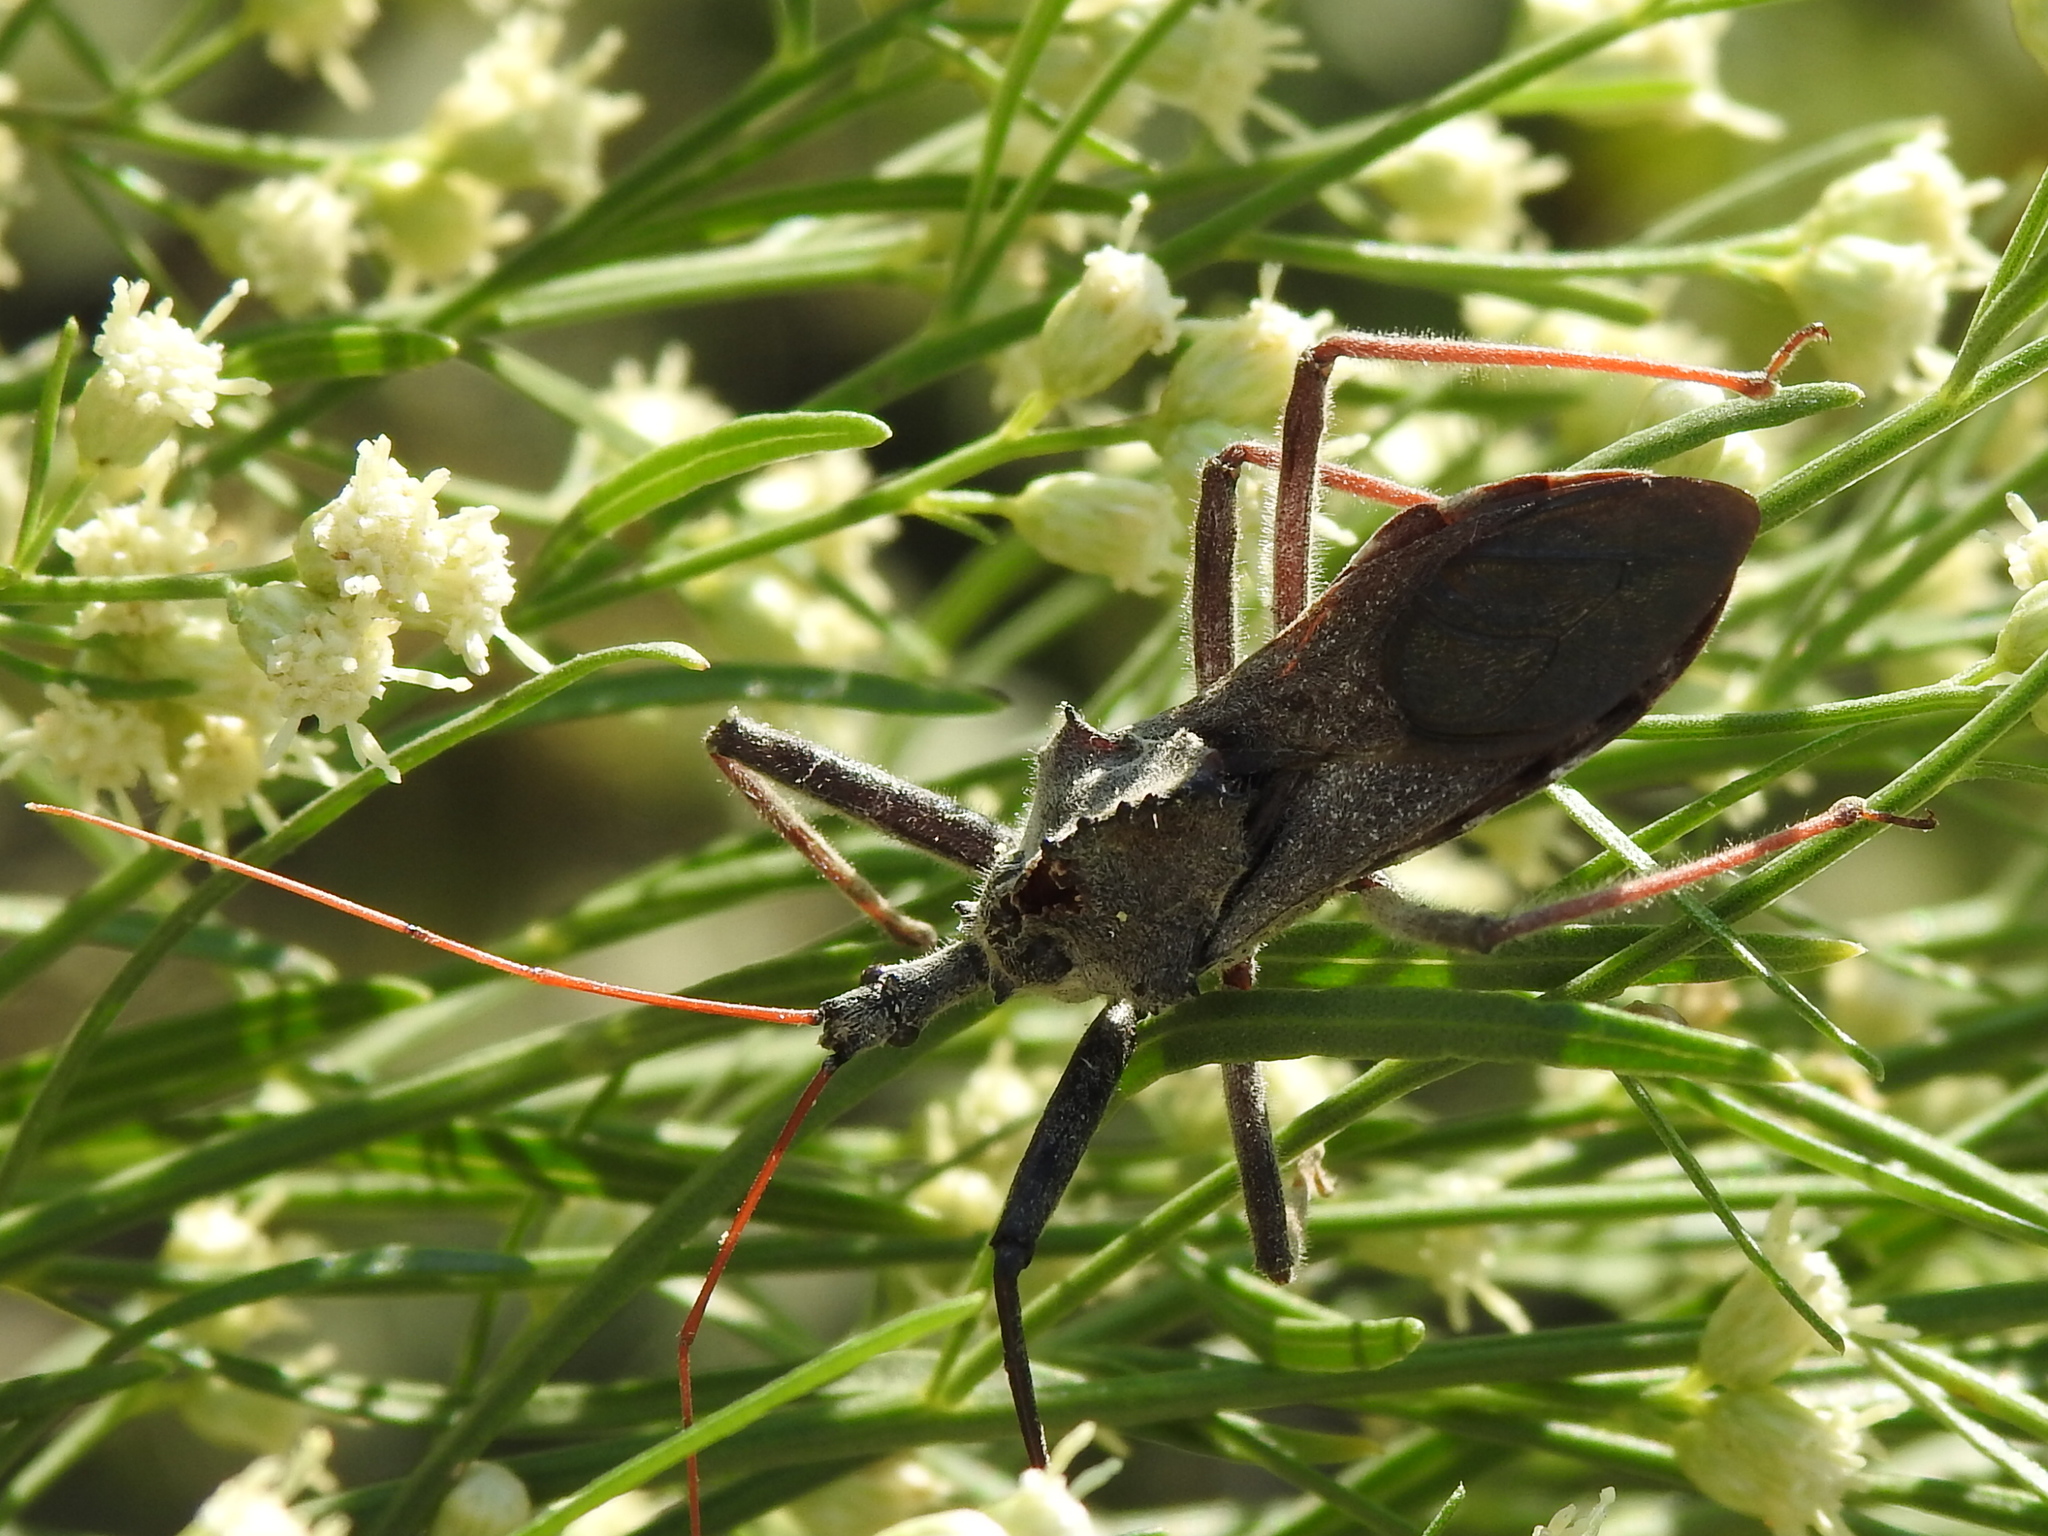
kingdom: Animalia
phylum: Arthropoda
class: Insecta
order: Hemiptera
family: Reduviidae
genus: Arilus
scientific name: Arilus cristatus
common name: North american wheel bug
